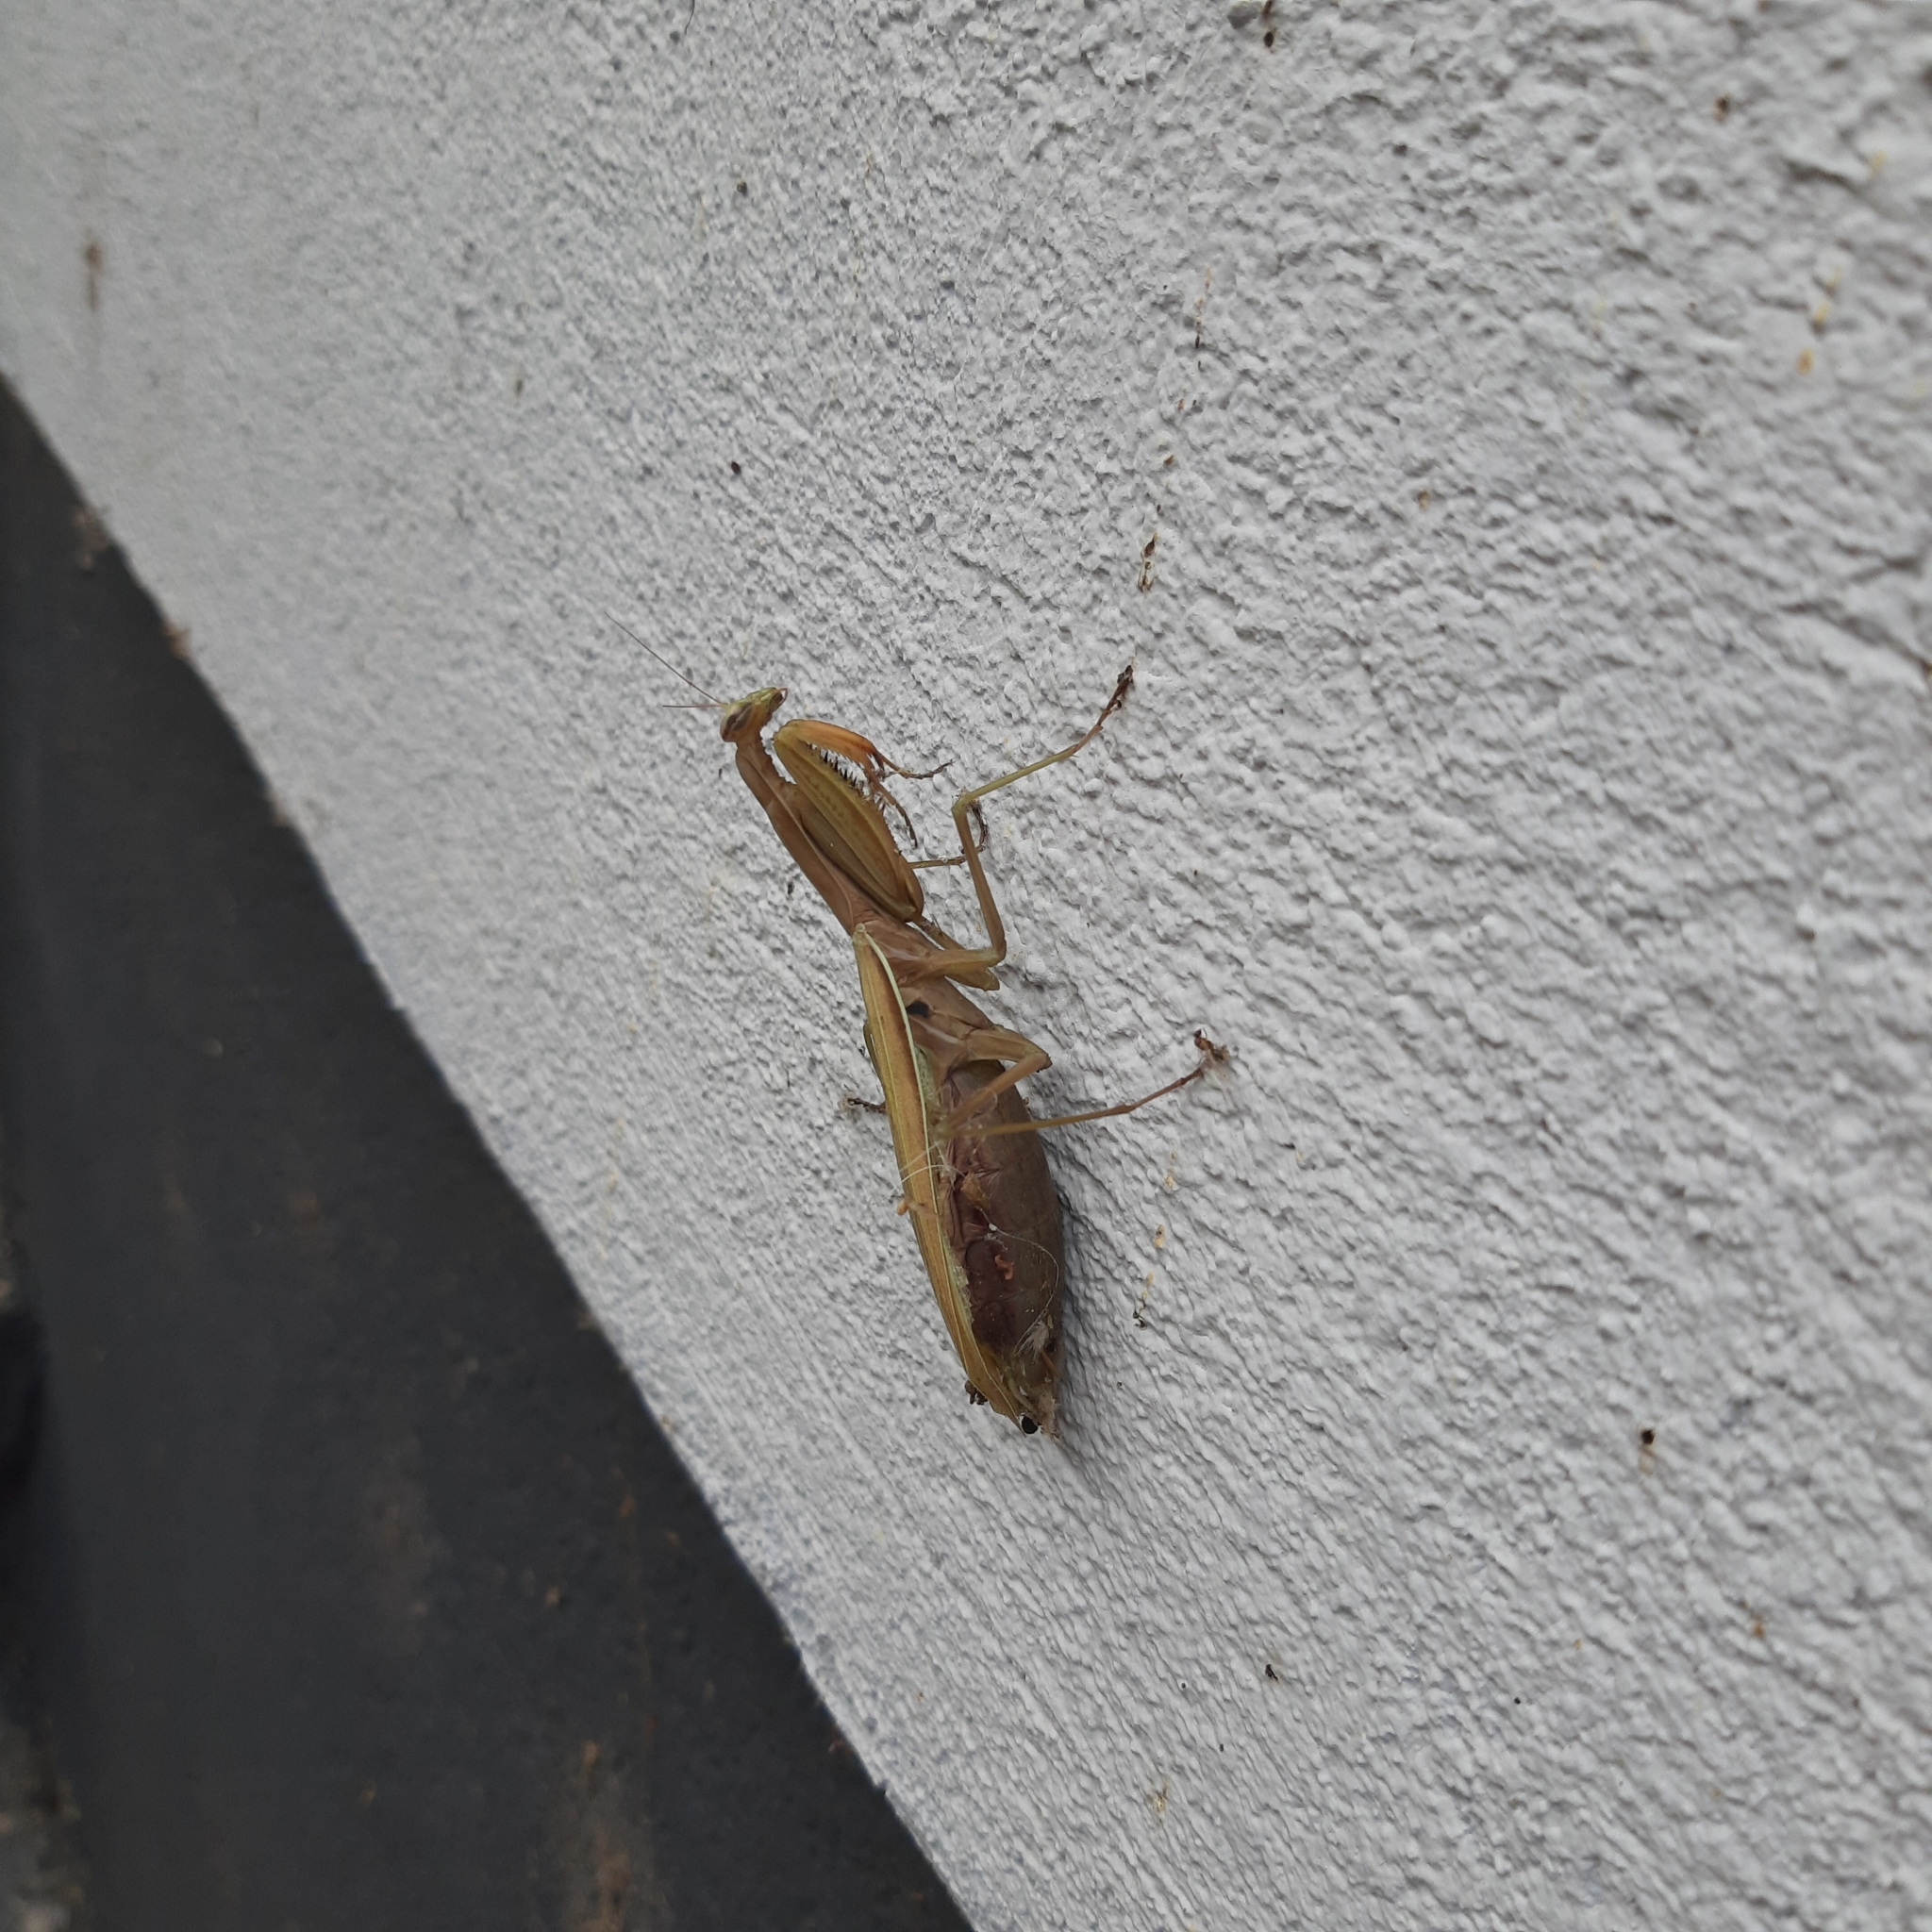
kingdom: Animalia
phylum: Arthropoda
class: Insecta
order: Mantodea
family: Mantidae
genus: Mantis
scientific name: Mantis religiosa
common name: Praying mantis
